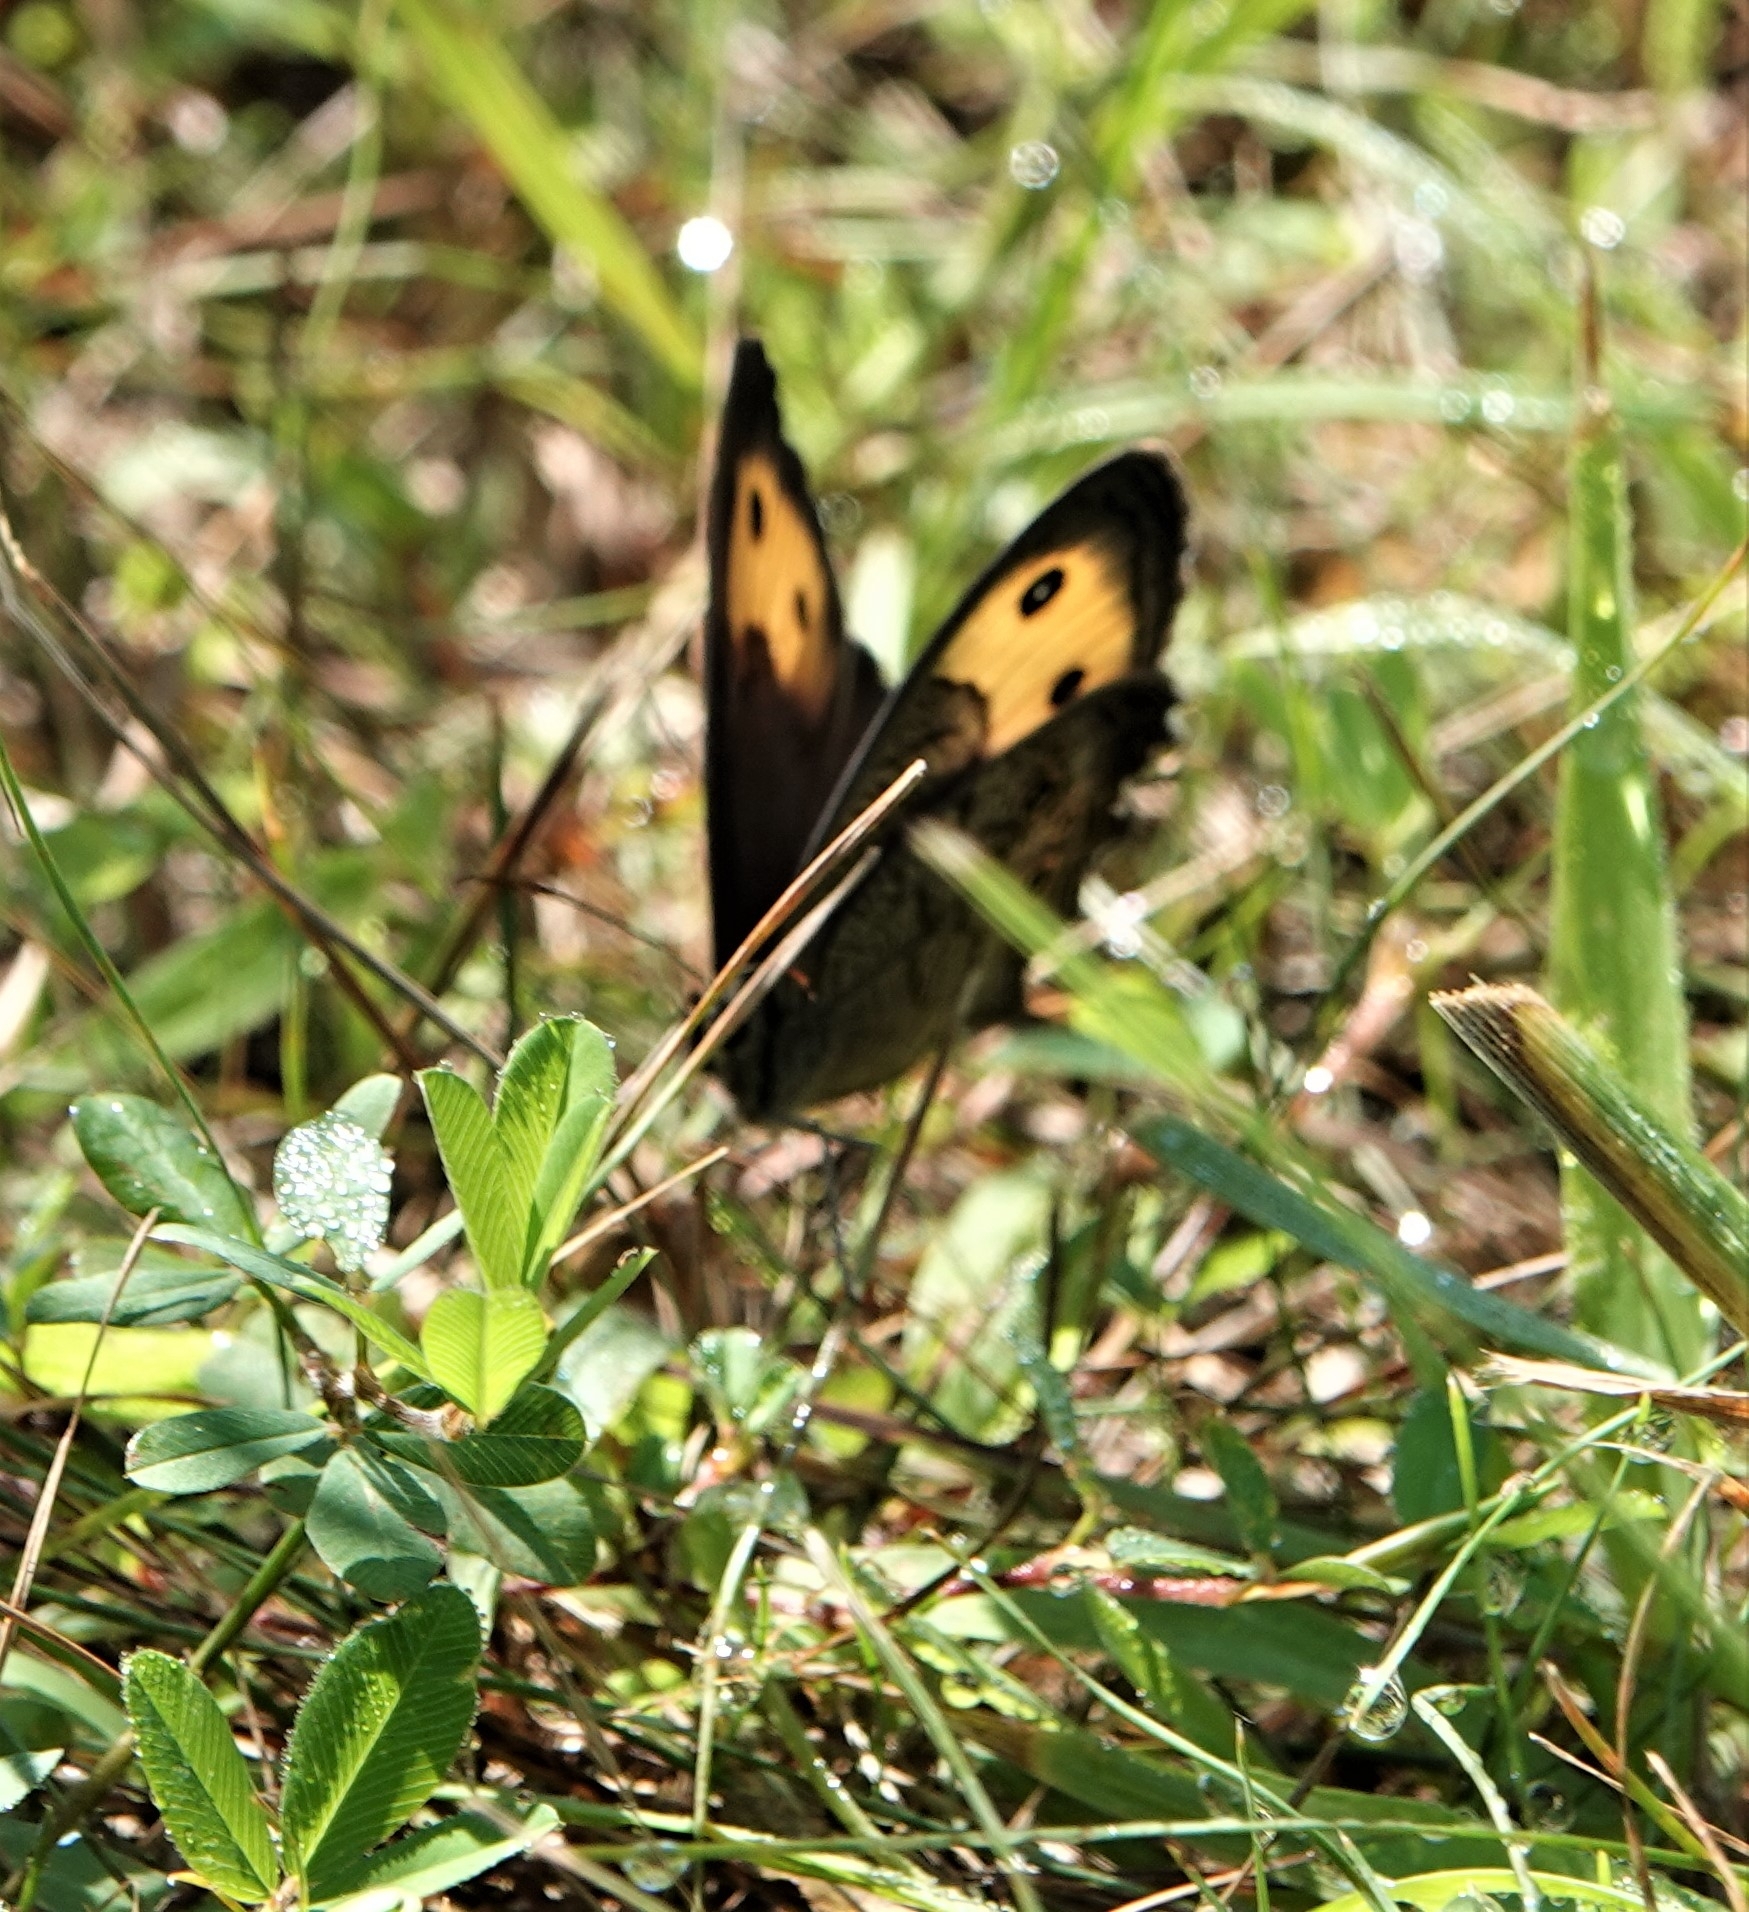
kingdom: Animalia
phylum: Arthropoda
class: Insecta
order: Lepidoptera
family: Nymphalidae
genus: Cercyonis
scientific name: Cercyonis pegala
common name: Common wood-nymph
